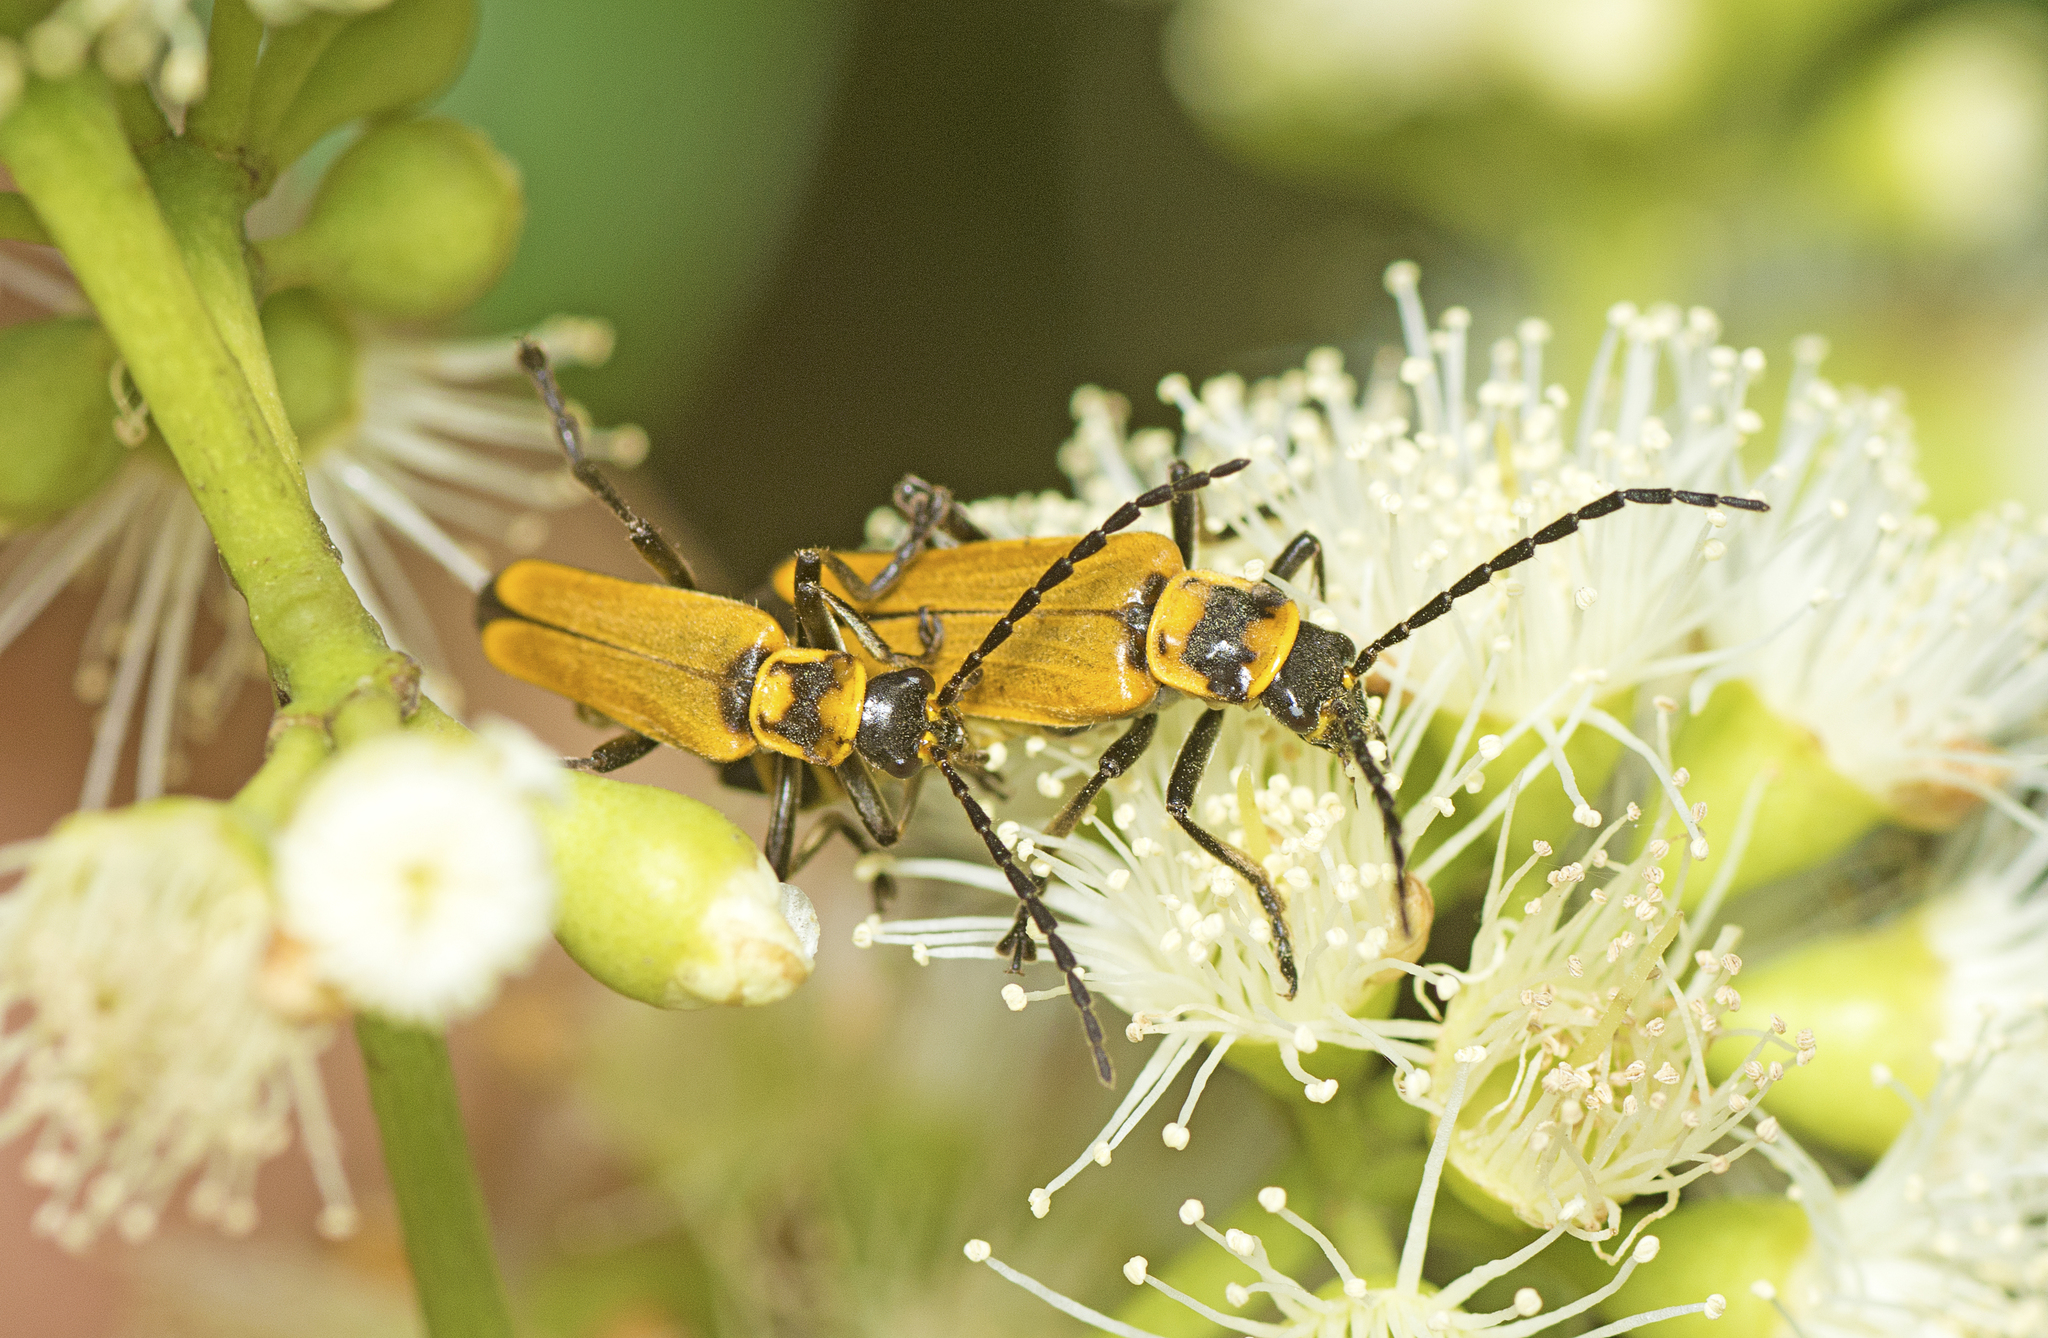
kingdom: Animalia
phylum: Arthropoda
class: Insecta
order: Coleoptera
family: Cantharidae
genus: Chauliognathus
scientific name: Chauliognathus
